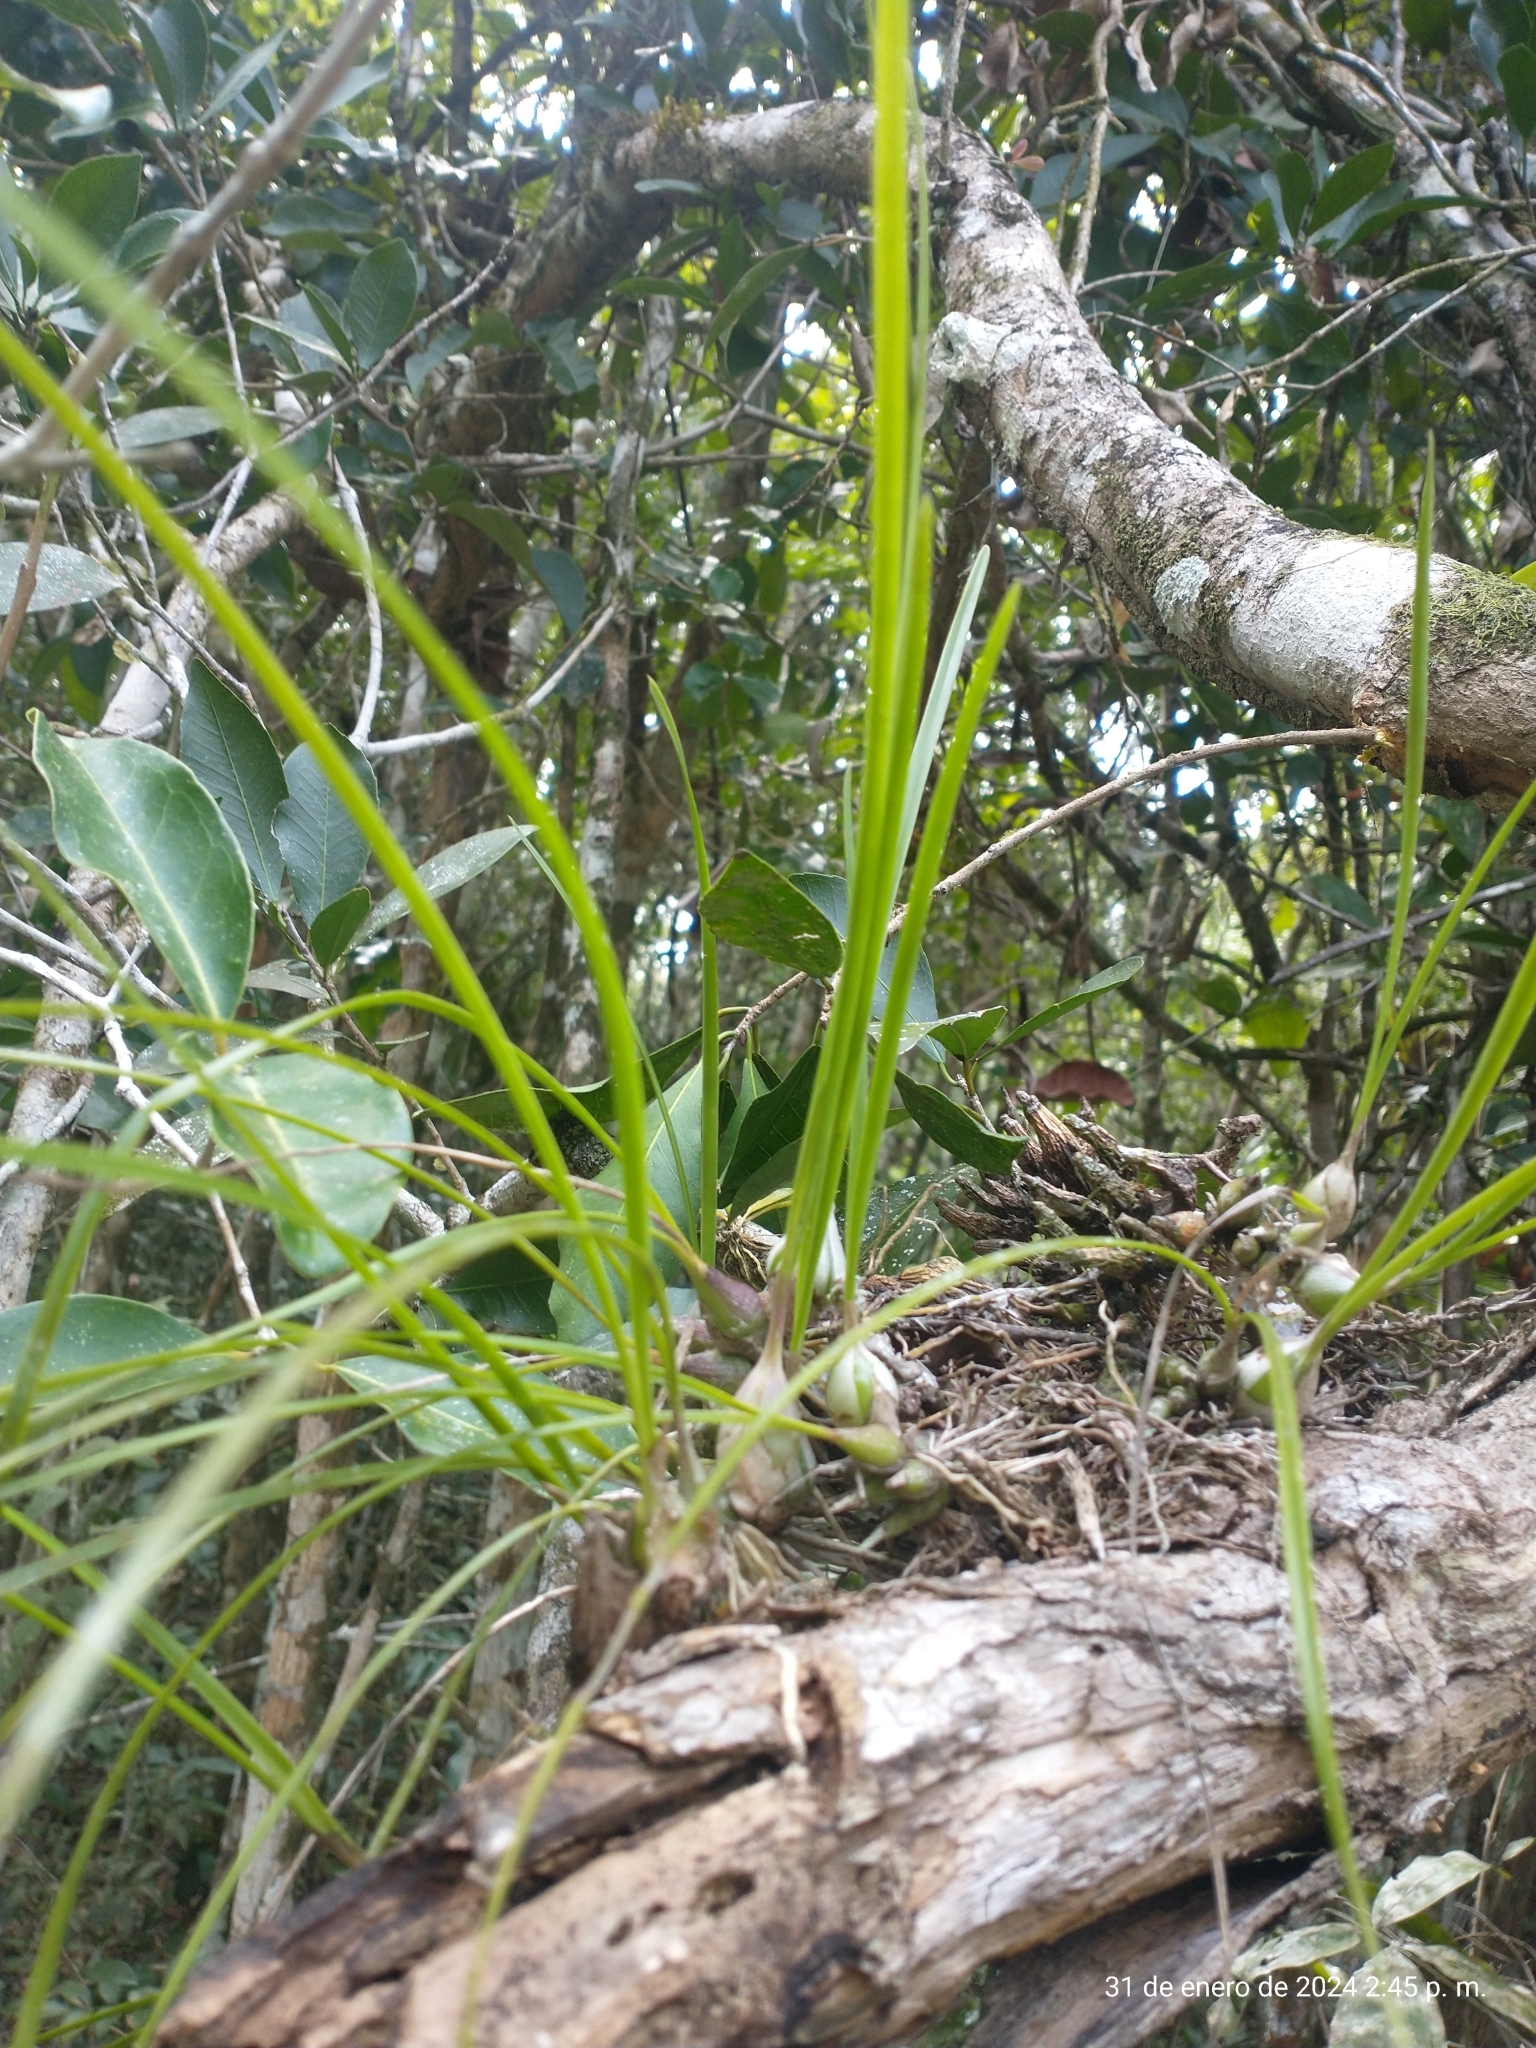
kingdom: Plantae
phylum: Tracheophyta
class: Liliopsida
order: Asparagales
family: Orchidaceae
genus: Encyclia
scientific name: Encyclia bractescens
